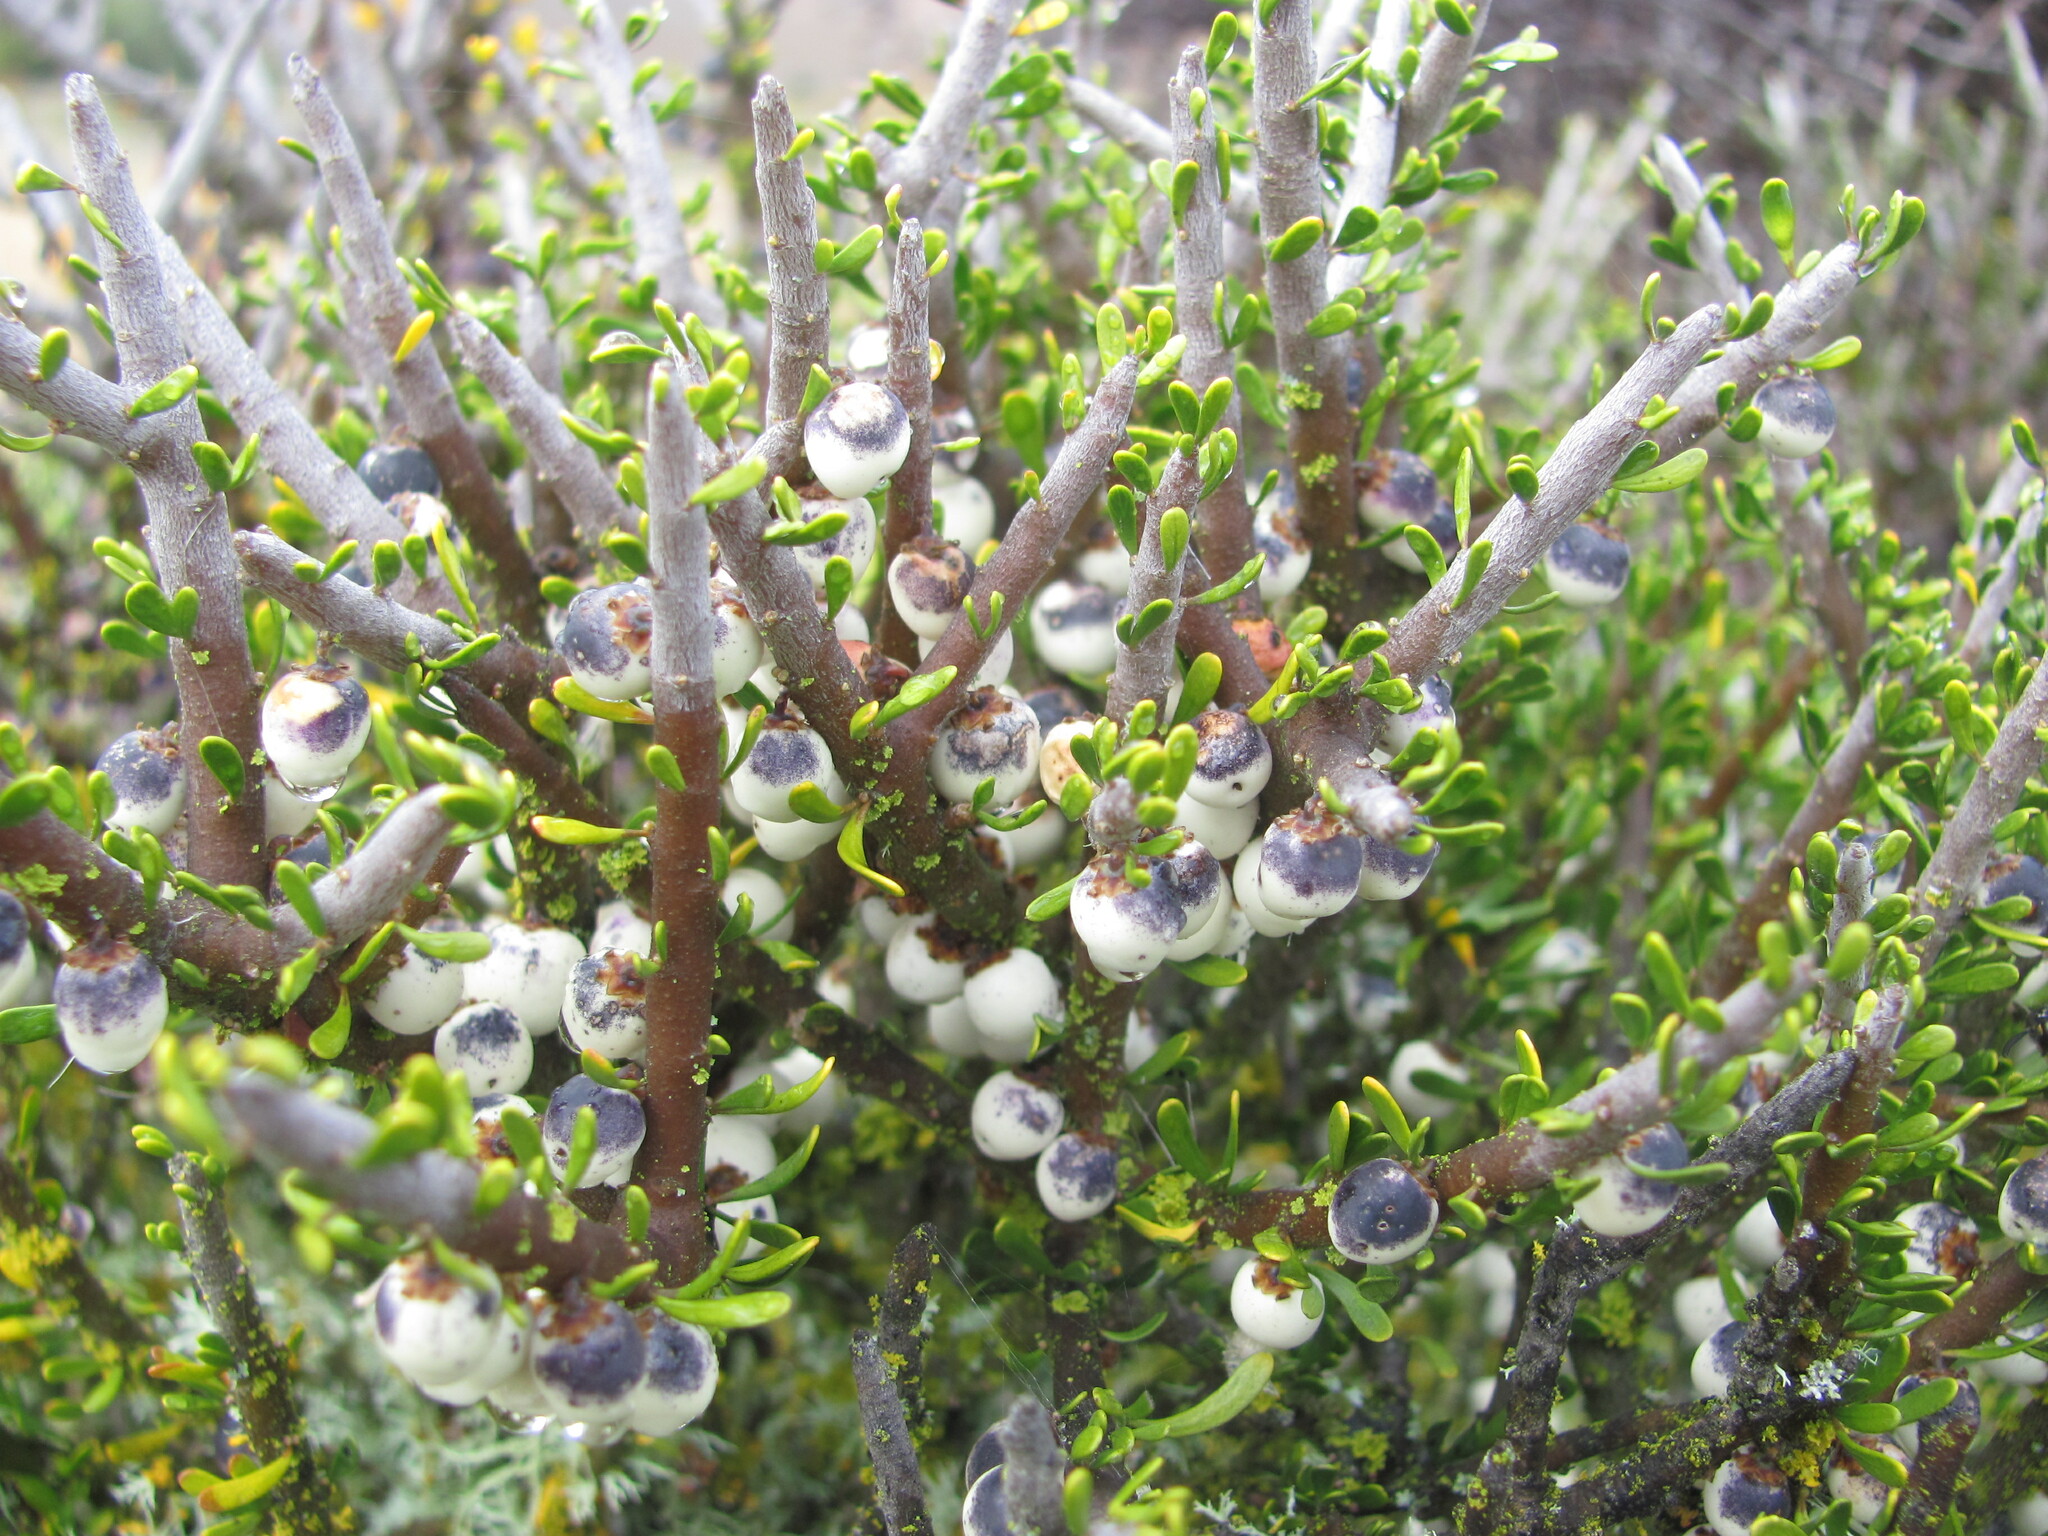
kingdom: Plantae
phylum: Tracheophyta
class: Magnoliopsida
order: Malpighiales
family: Violaceae
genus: Melicytus
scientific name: Melicytus alpinus
